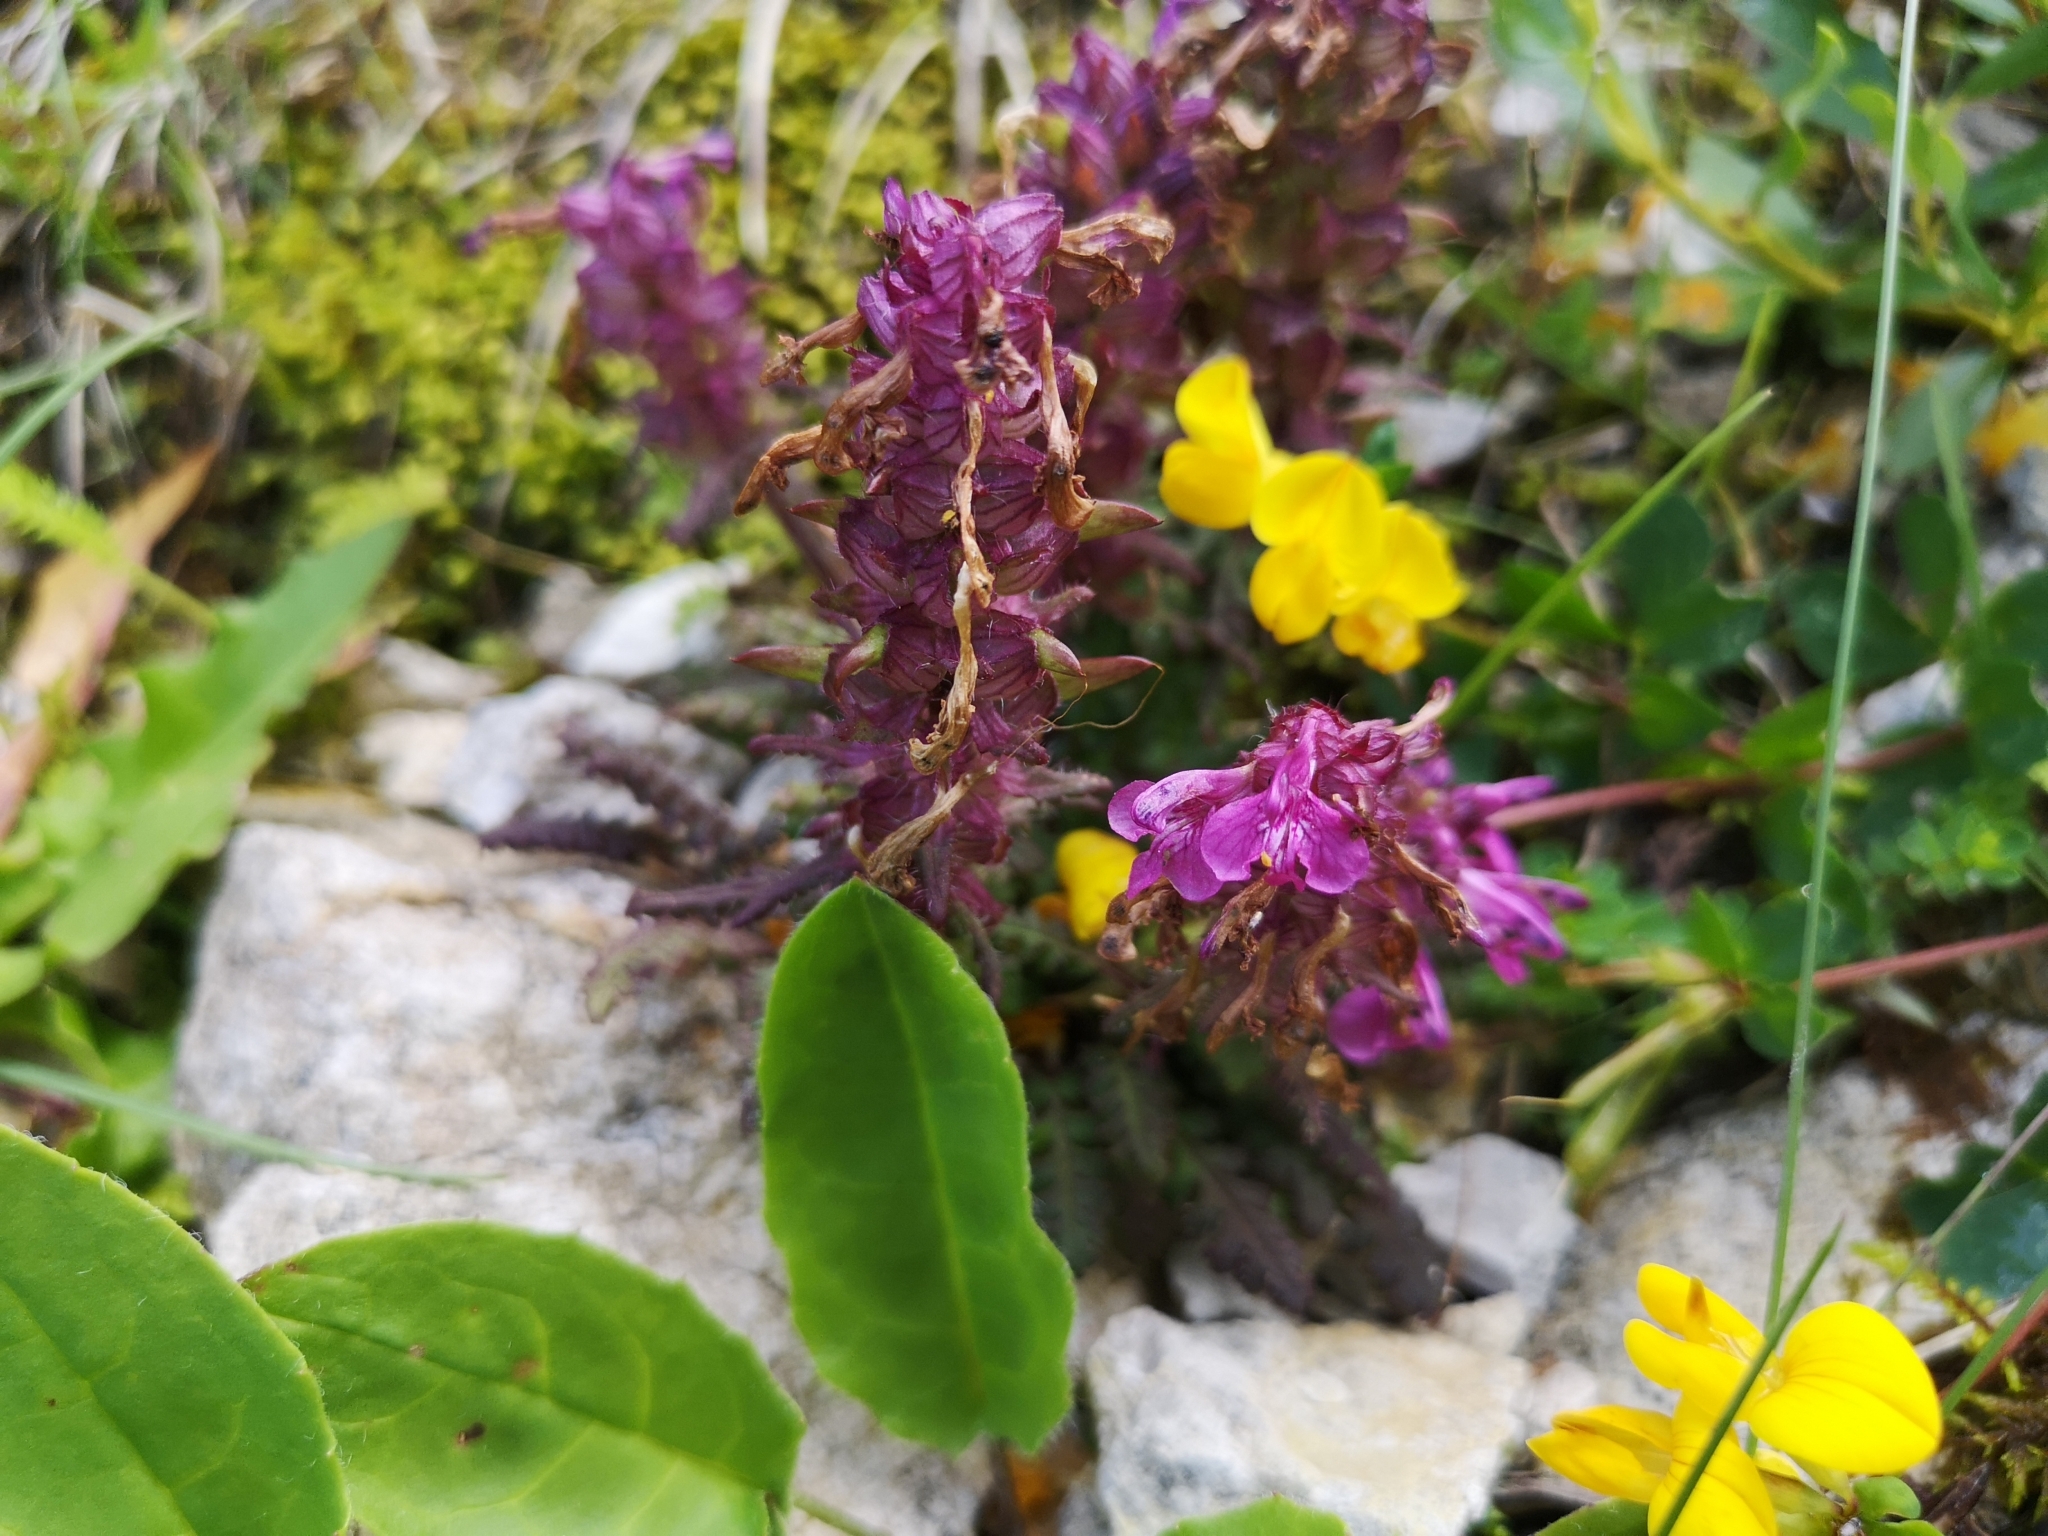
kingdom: Plantae
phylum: Tracheophyta
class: Magnoliopsida
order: Lamiales
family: Orobanchaceae
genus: Pedicularis
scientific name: Pedicularis verticillata
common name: Whorled lousewort
